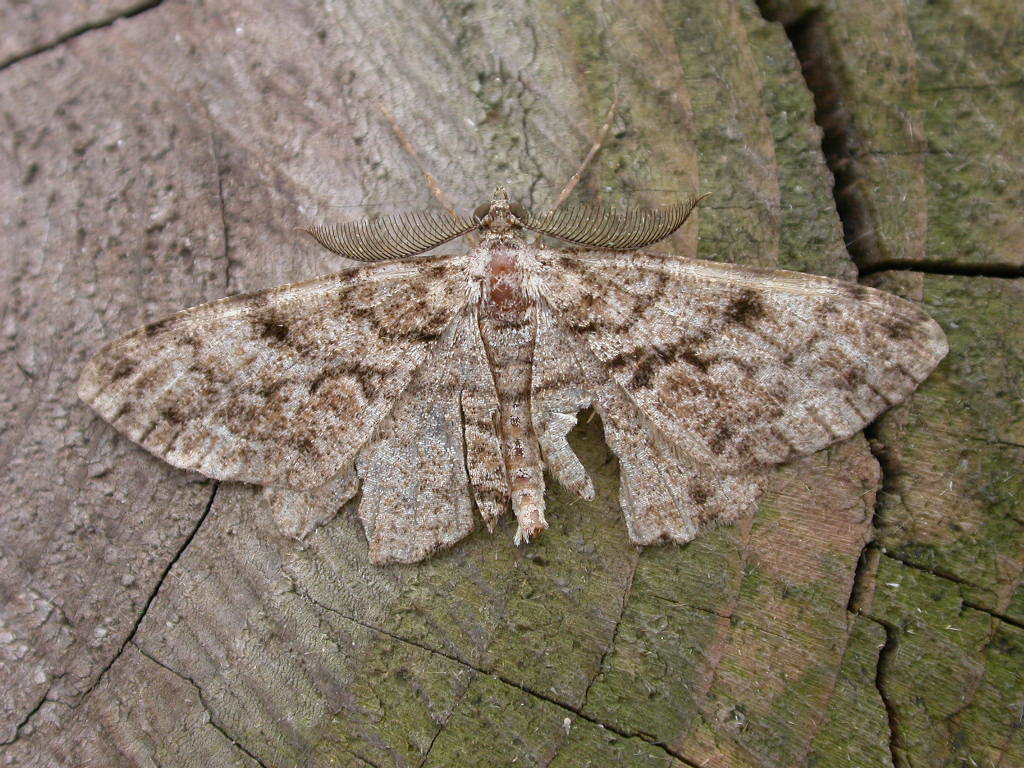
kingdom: Animalia
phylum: Arthropoda
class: Insecta
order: Lepidoptera
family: Geometridae
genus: Peribatodes
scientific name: Peribatodes secundaria
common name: Feathered beauty
